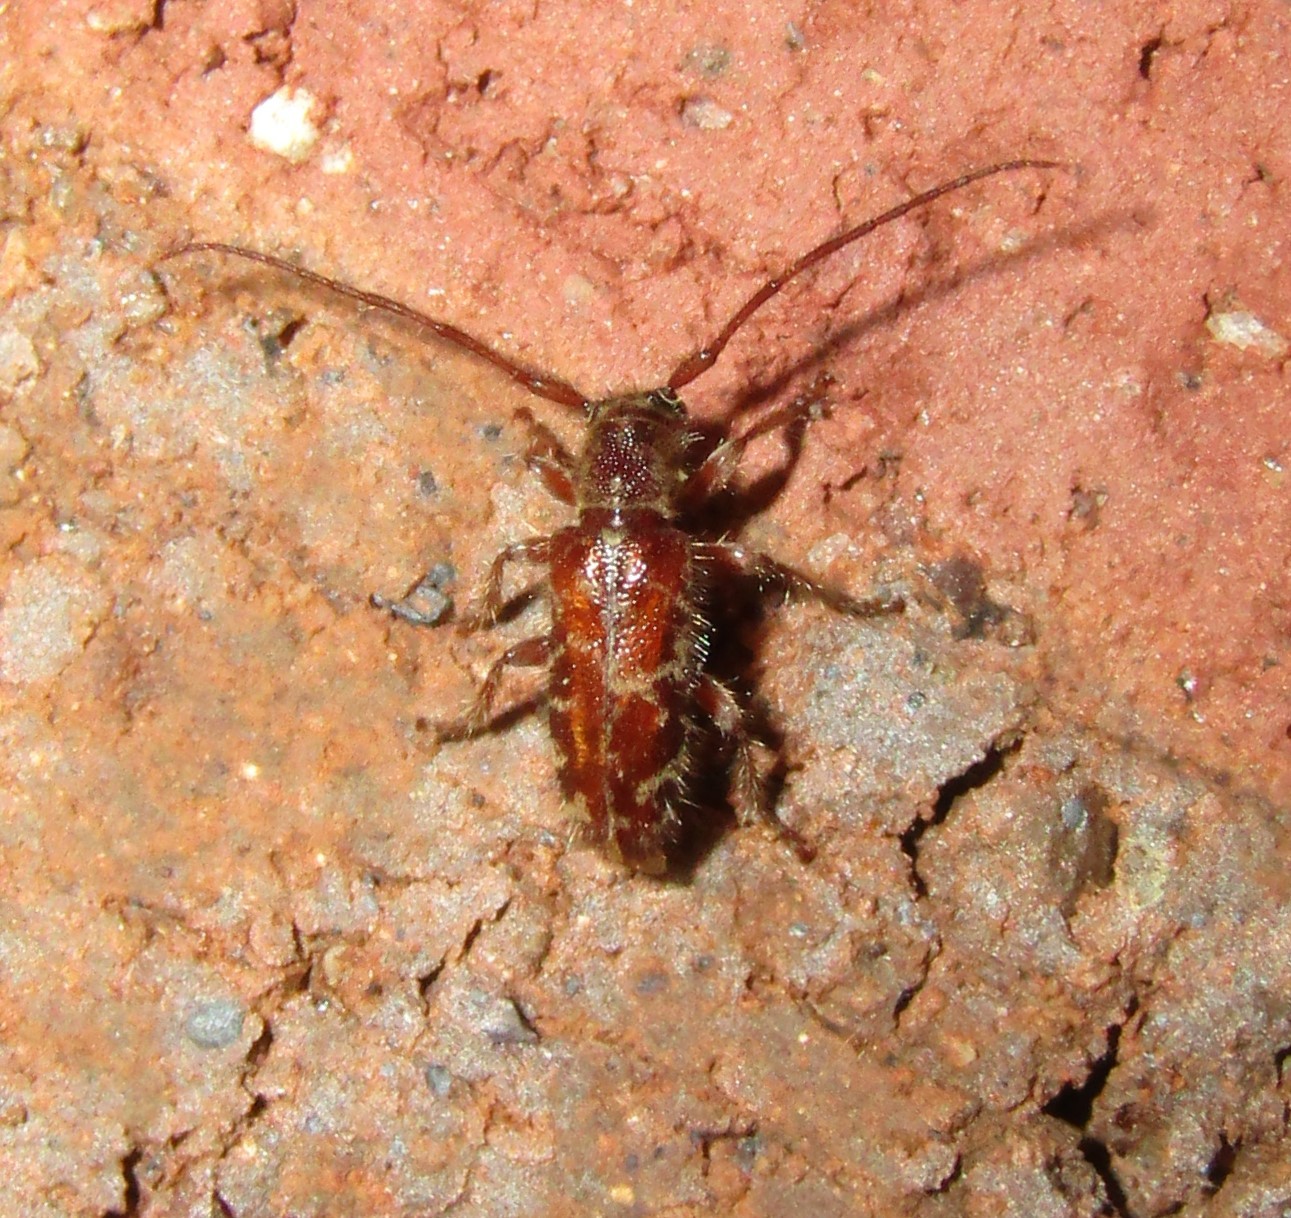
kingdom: Animalia
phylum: Arthropoda
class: Insecta
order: Coleoptera
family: Cerambycidae
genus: Eupogonius
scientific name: Eupogonius tomentosus
